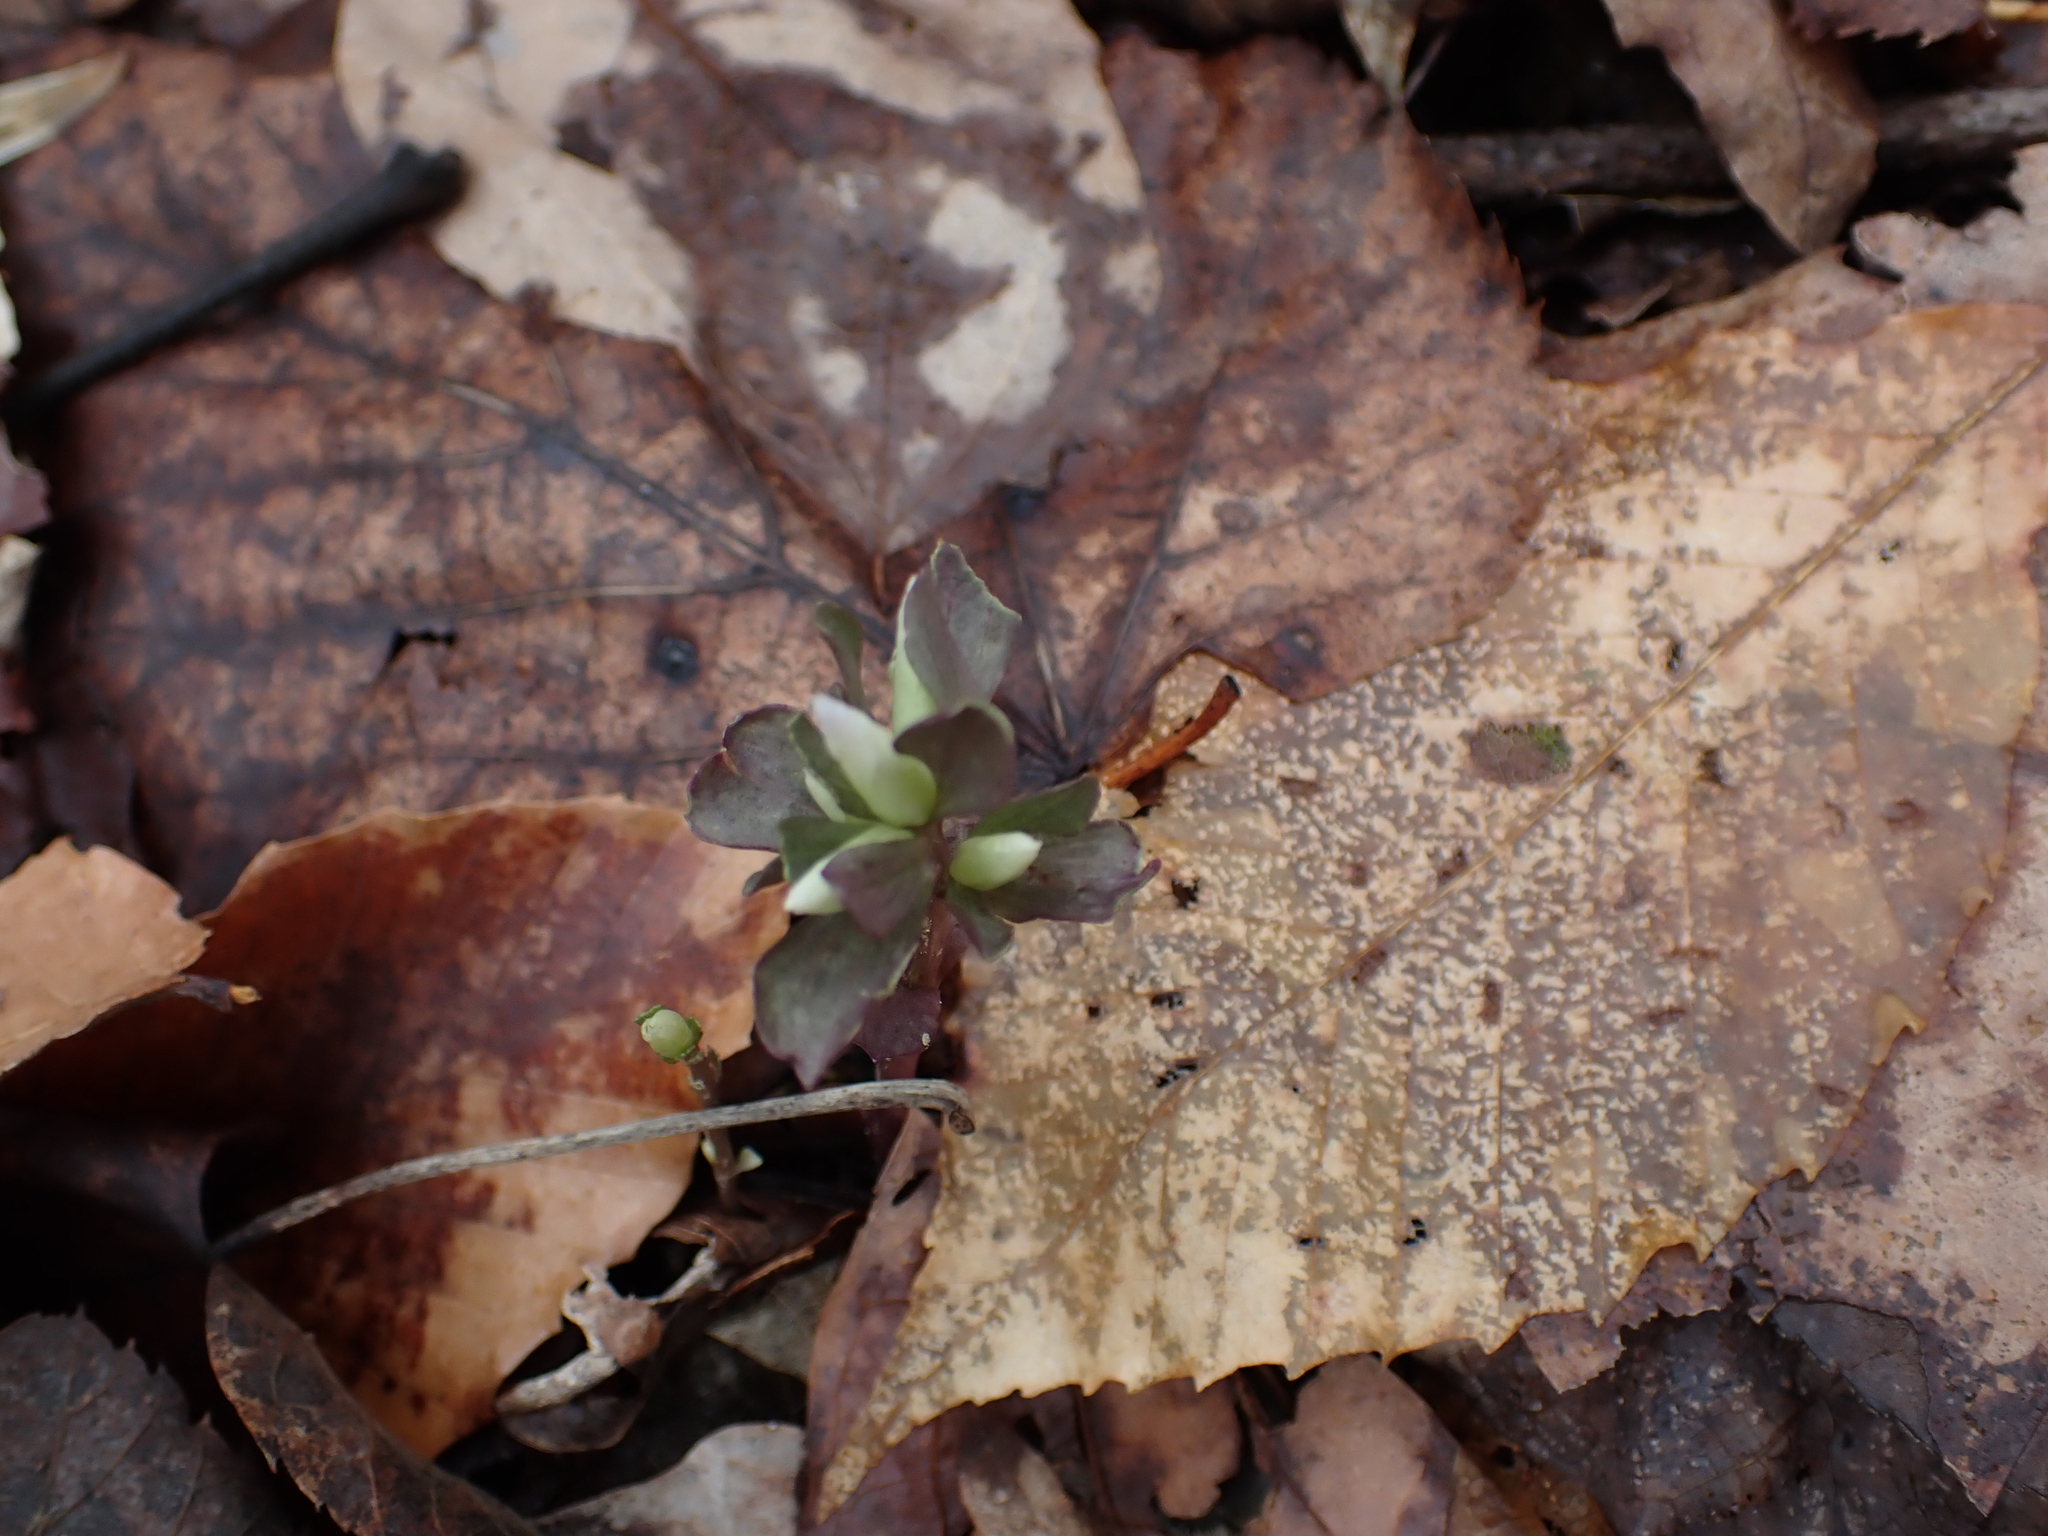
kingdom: Plantae
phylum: Tracheophyta
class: Magnoliopsida
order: Gentianales
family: Gentianaceae
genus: Obolaria
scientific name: Obolaria virginica
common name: Pennywort
